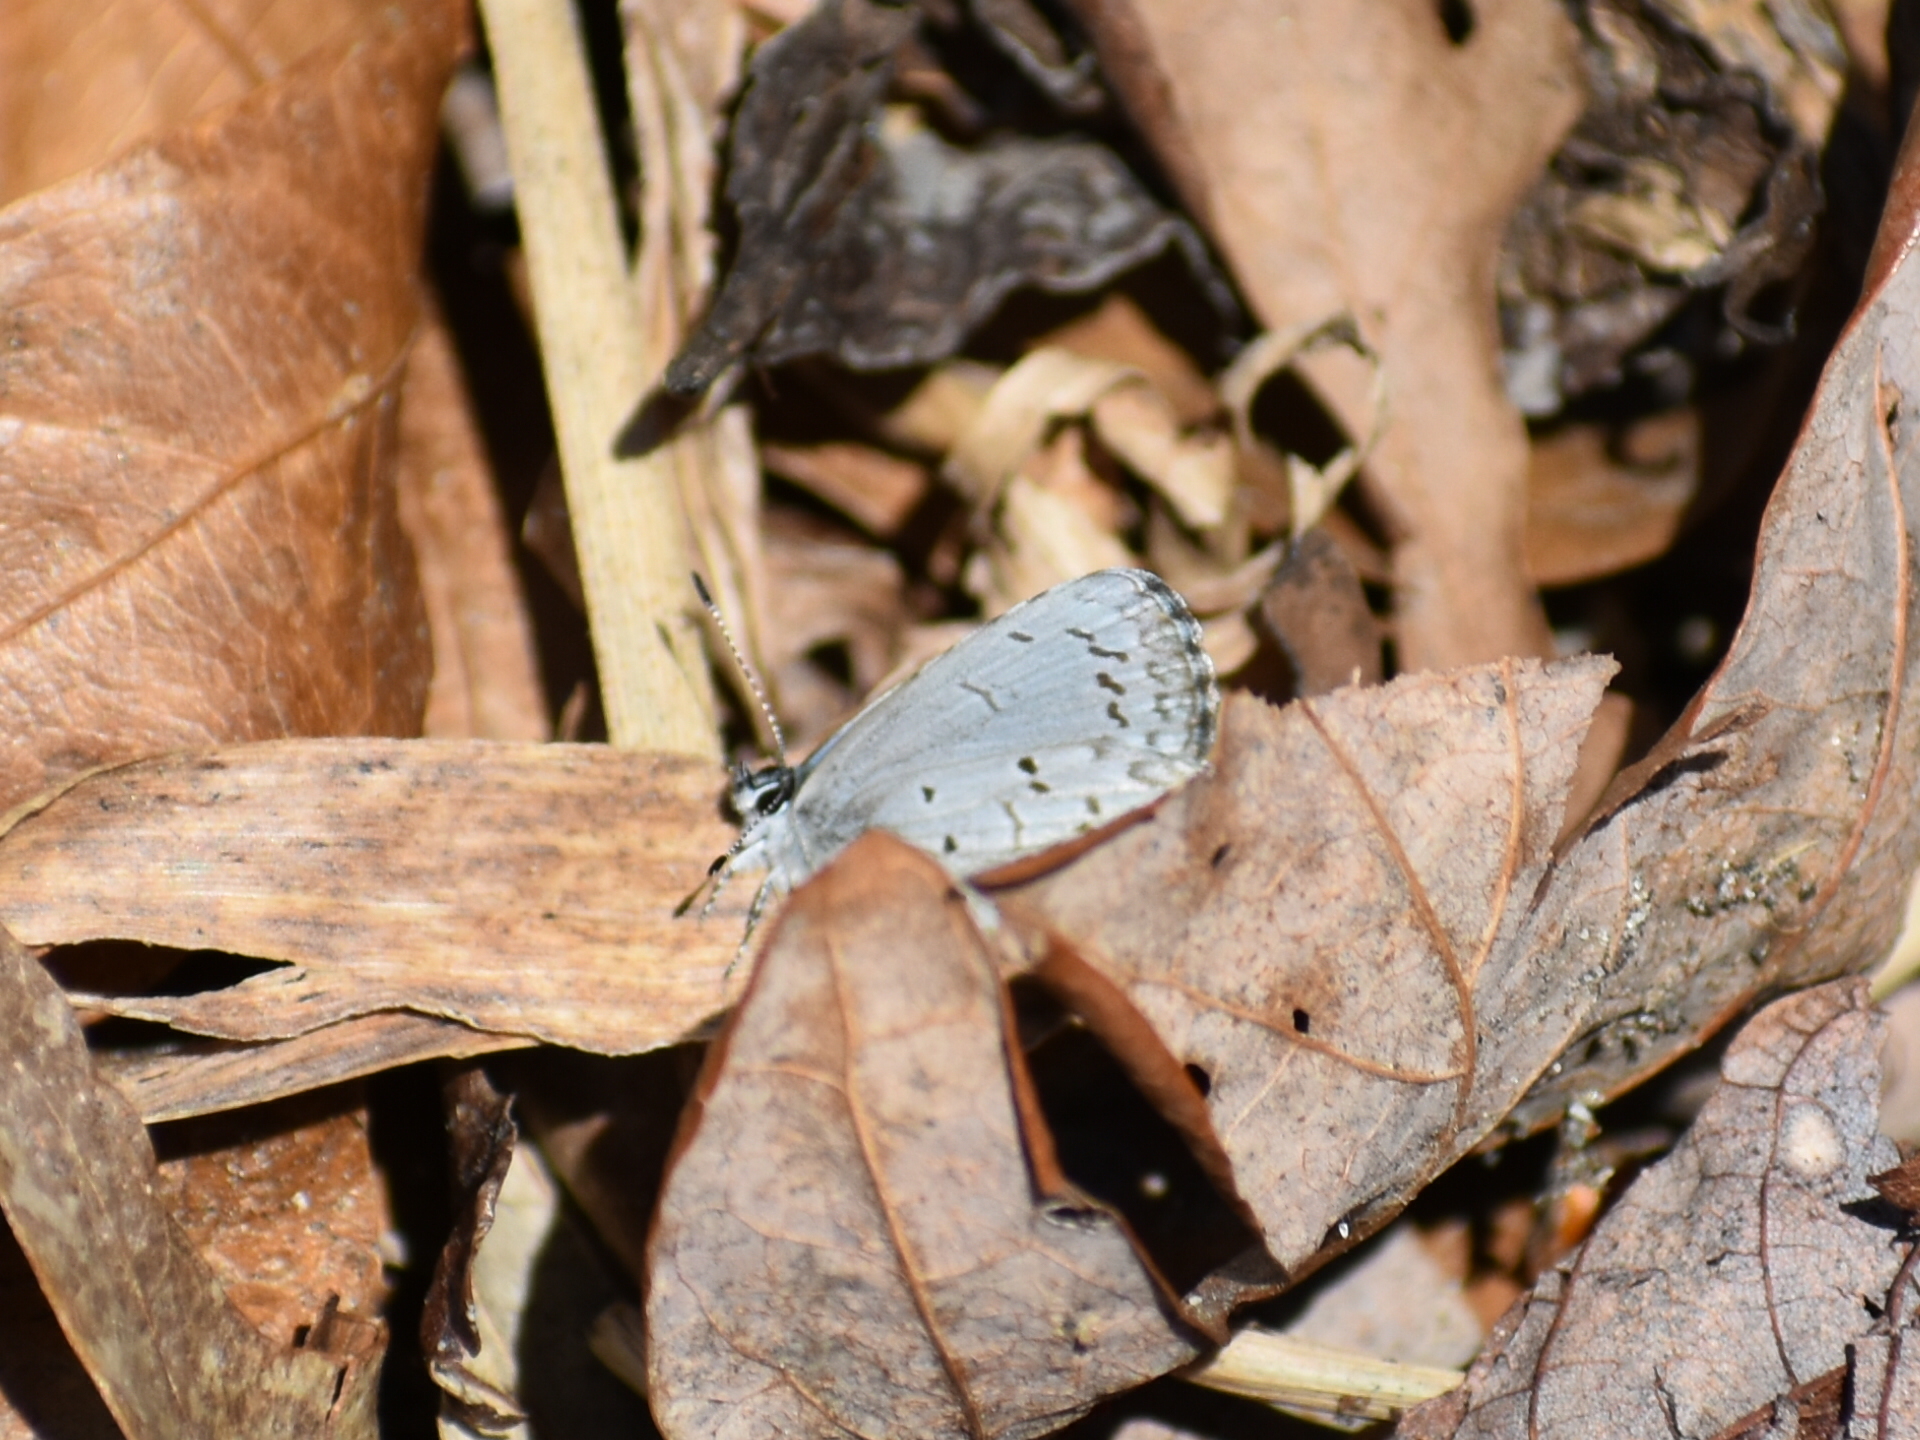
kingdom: Animalia
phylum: Arthropoda
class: Insecta
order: Lepidoptera
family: Lycaenidae
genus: Celastrina
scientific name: Celastrina ladon
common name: Spring azure
